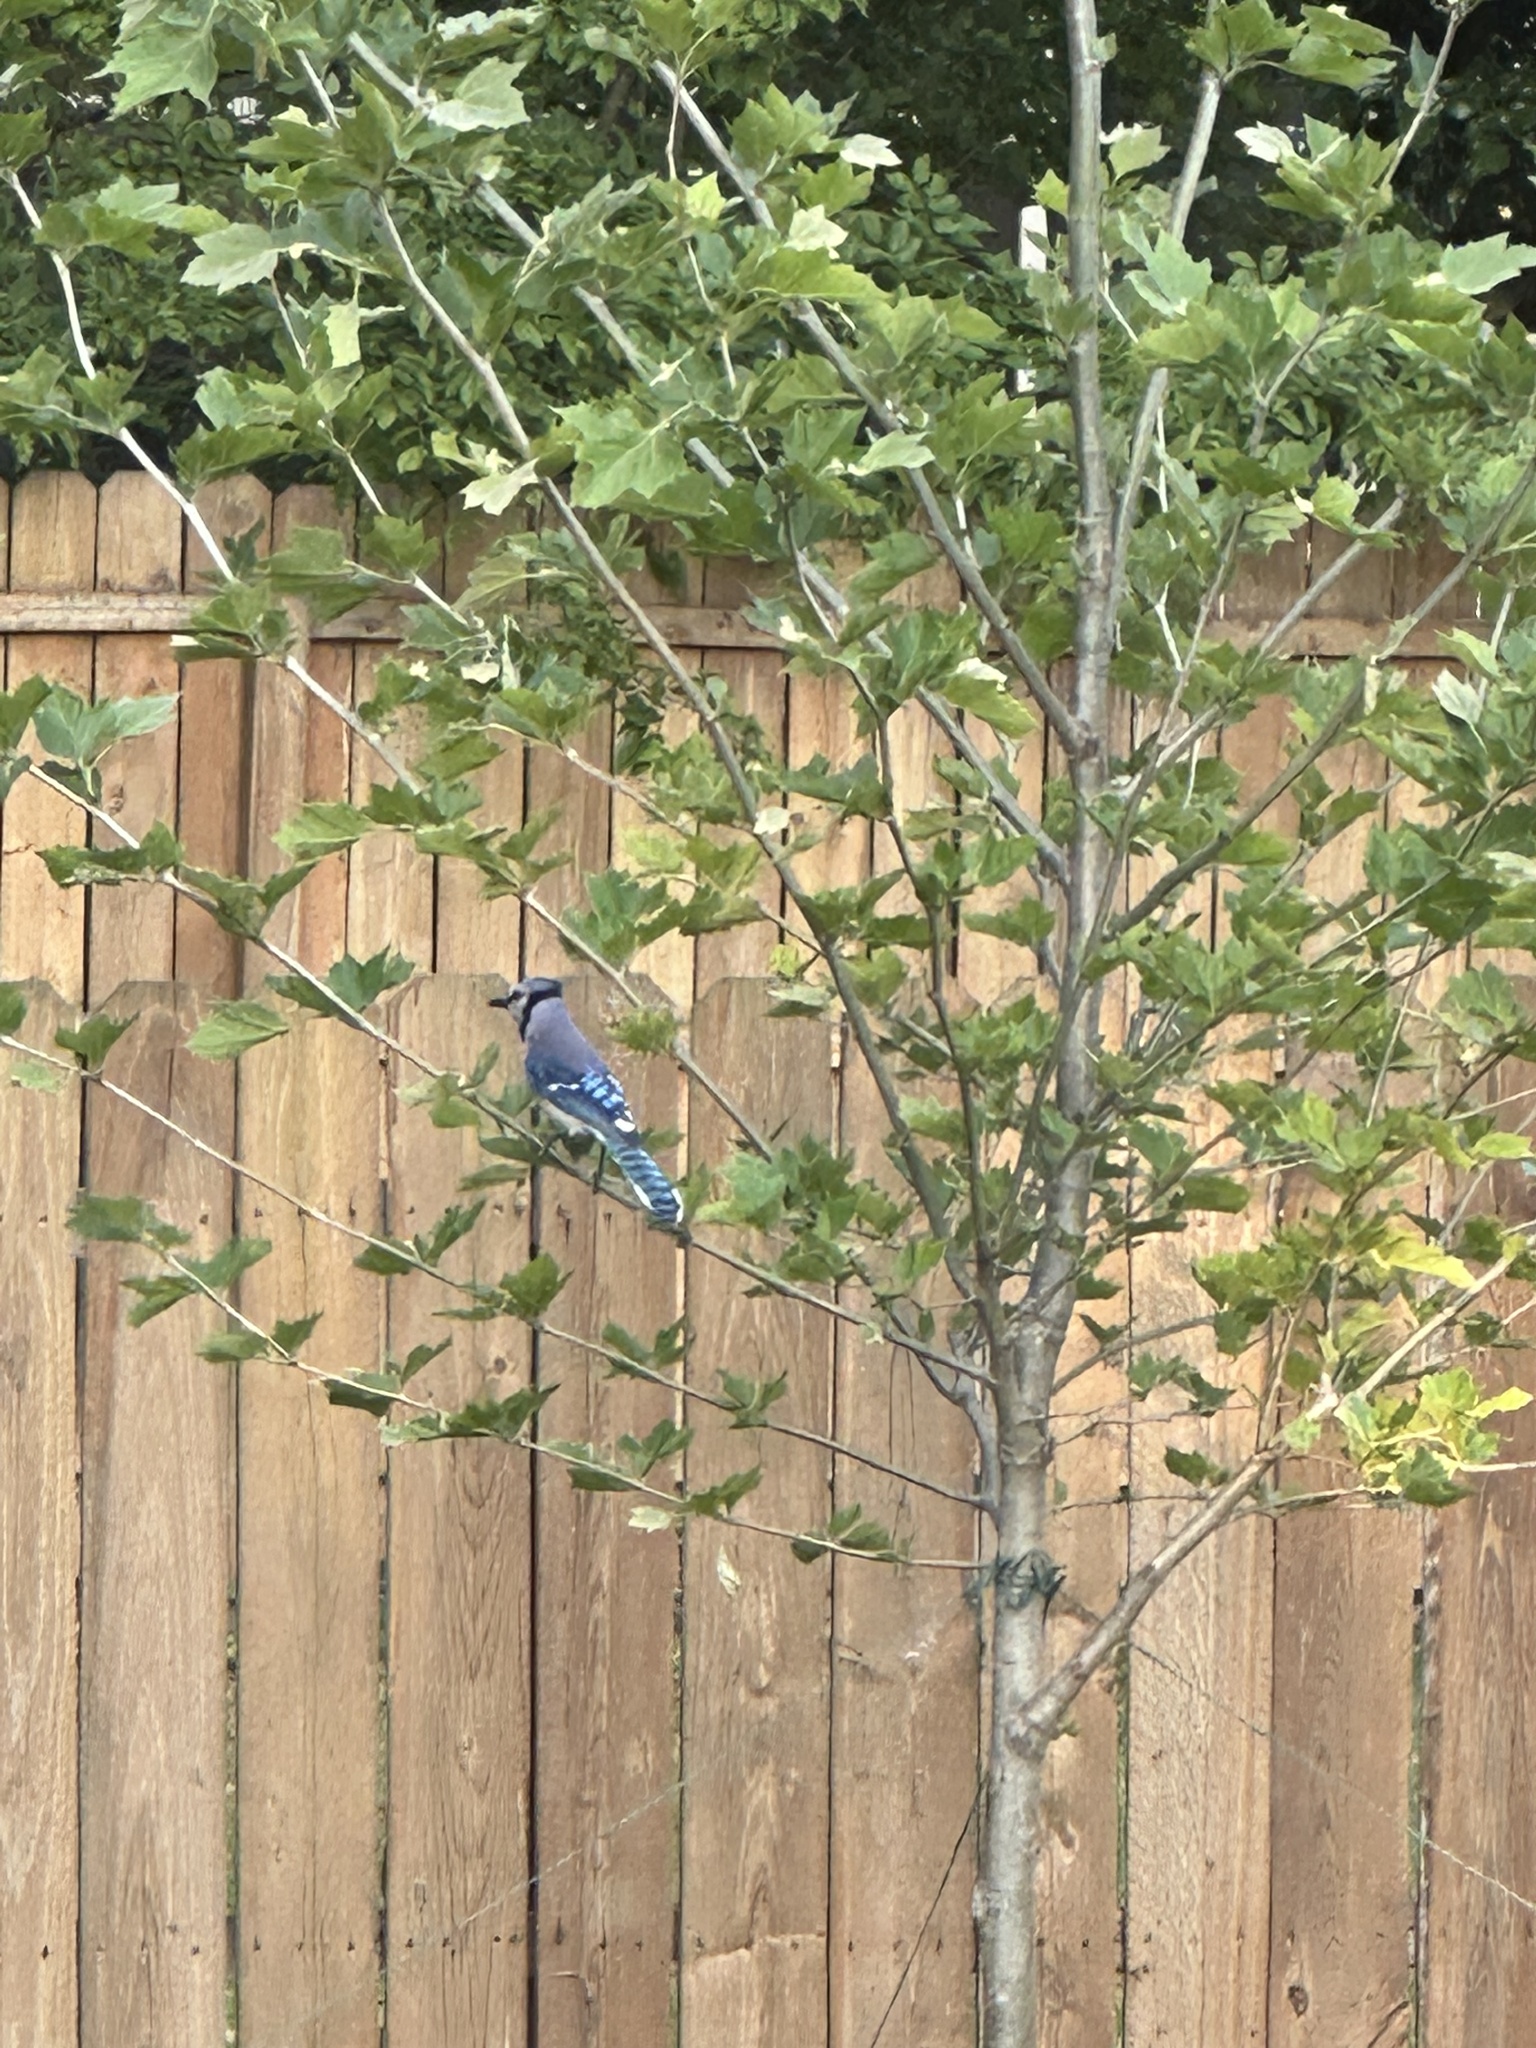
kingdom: Animalia
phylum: Chordata
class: Aves
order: Passeriformes
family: Corvidae
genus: Cyanocitta
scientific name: Cyanocitta cristata
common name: Blue jay
